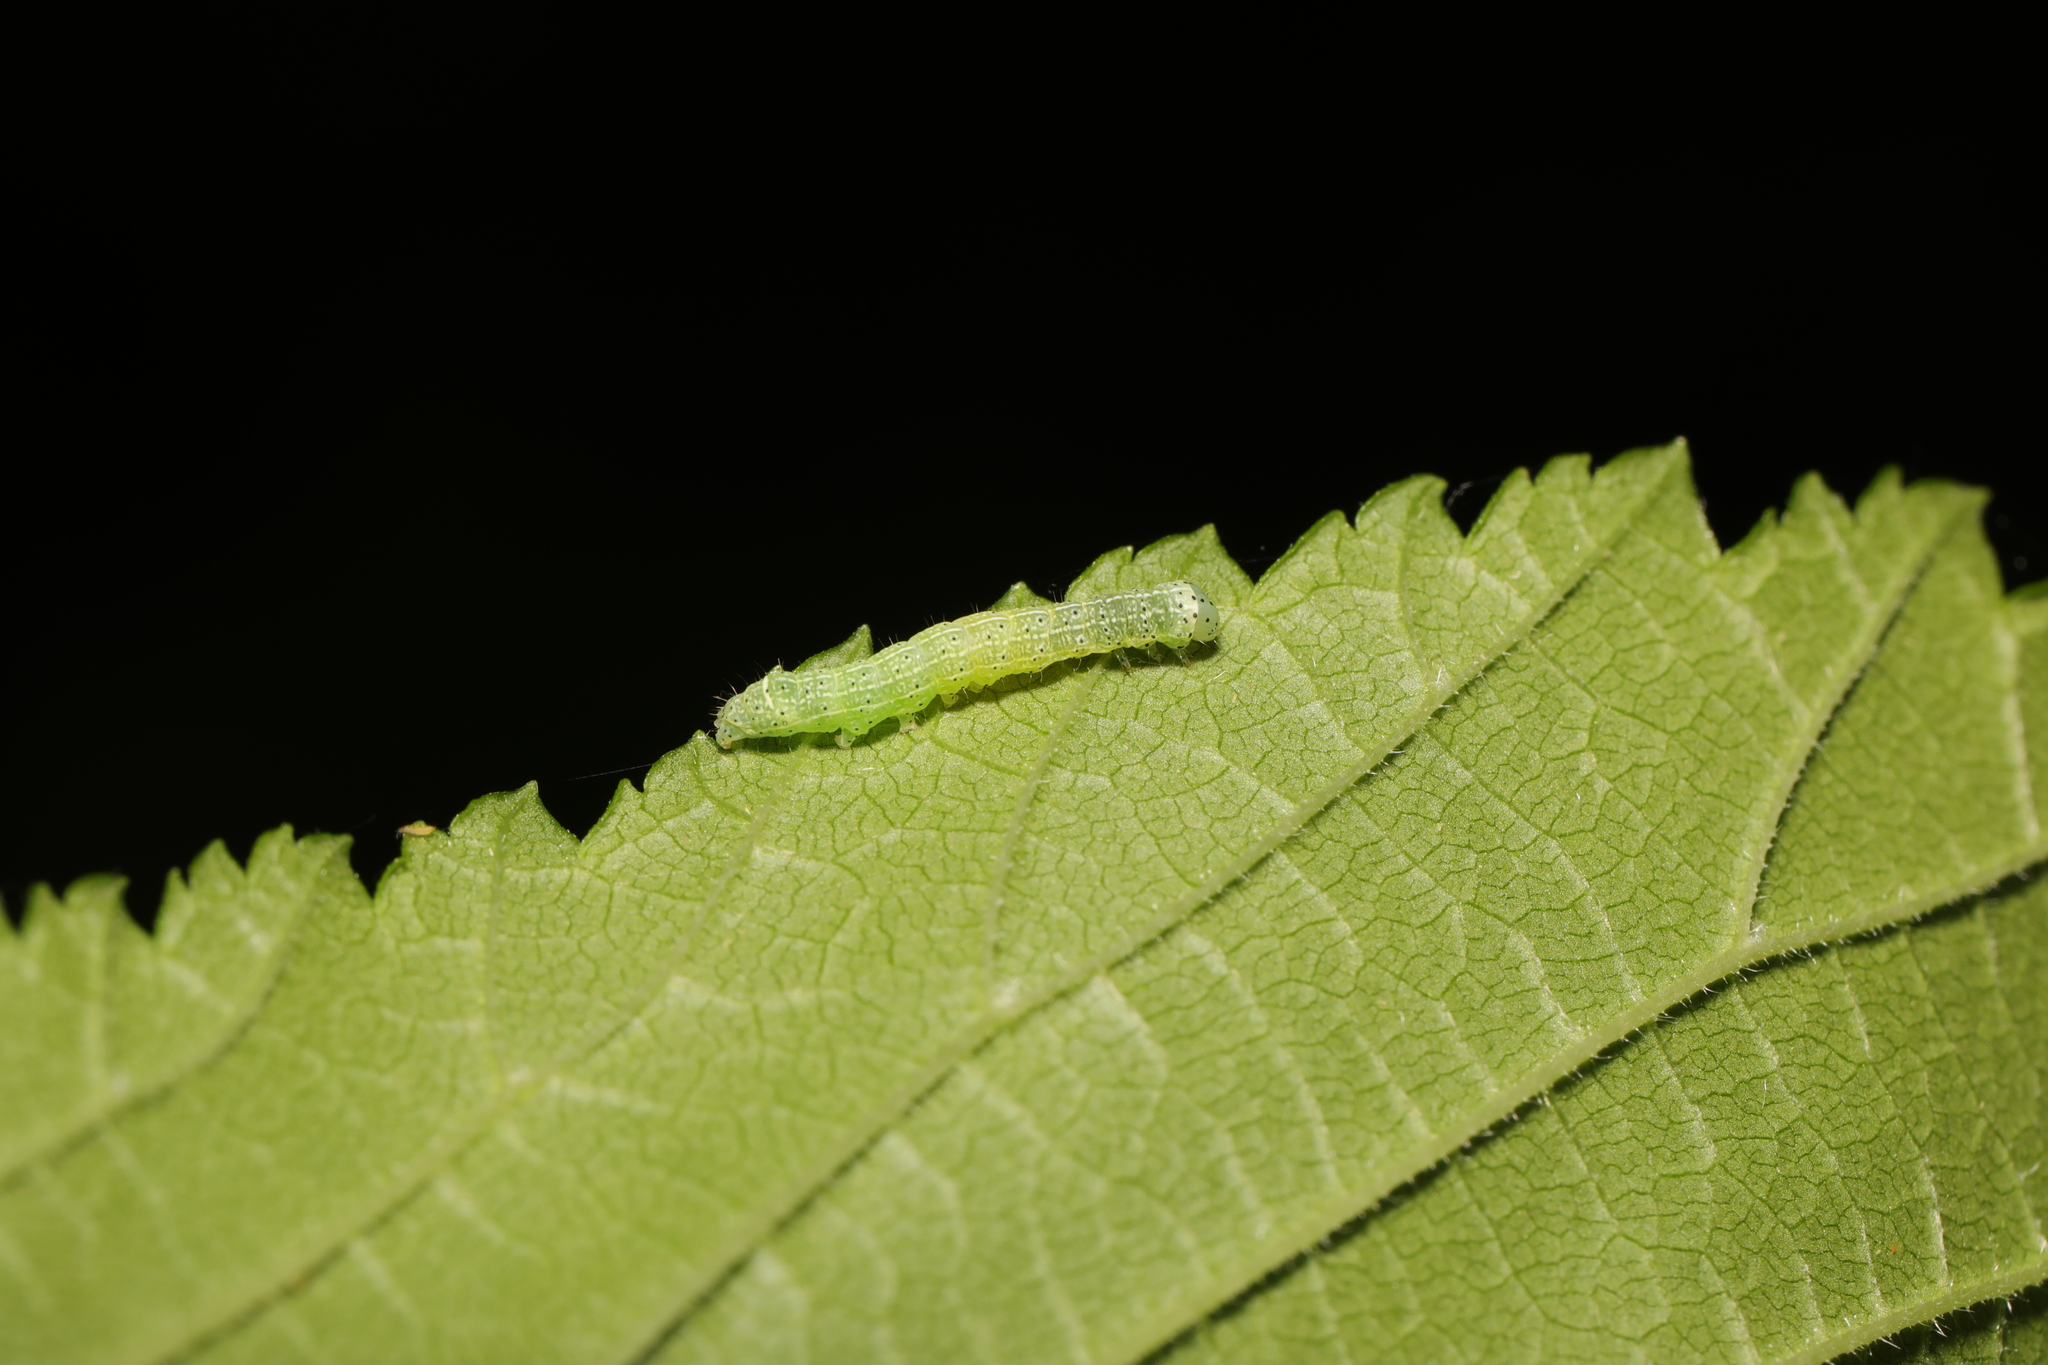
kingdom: Animalia
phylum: Arthropoda
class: Insecta
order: Lepidoptera
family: Noctuidae
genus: Orthosia
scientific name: Orthosia cerasi
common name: Common quaker
